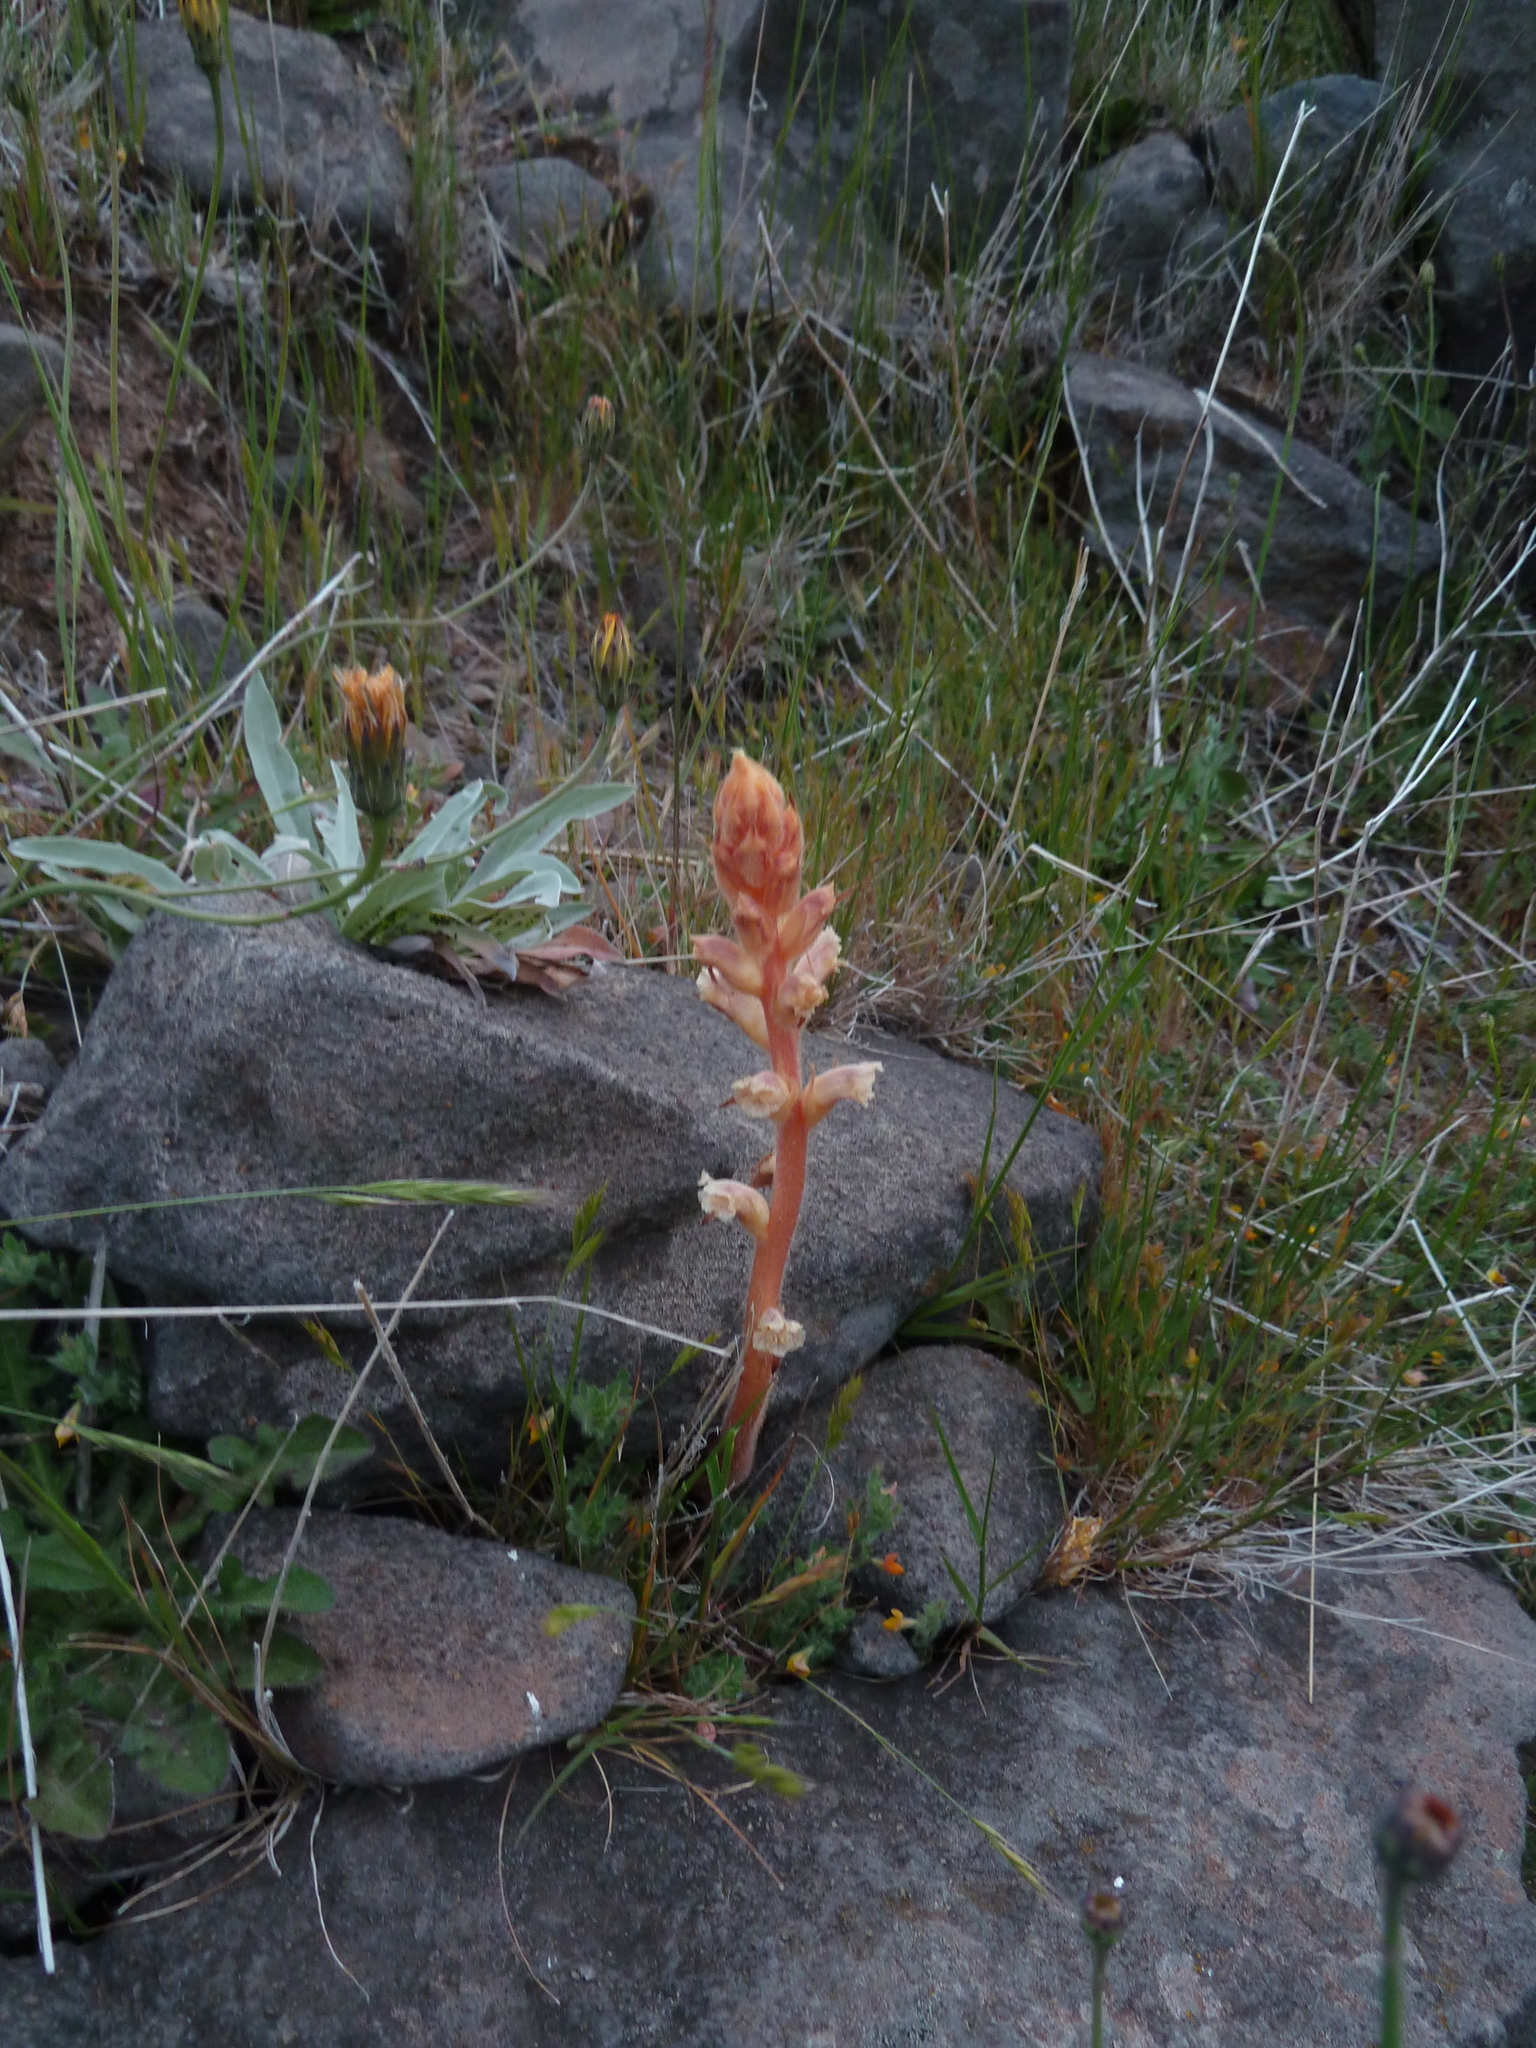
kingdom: Plantae
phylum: Tracheophyta
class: Magnoliopsida
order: Lamiales
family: Orobanchaceae
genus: Orobanche
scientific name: Orobanche minor
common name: Common broomrape
